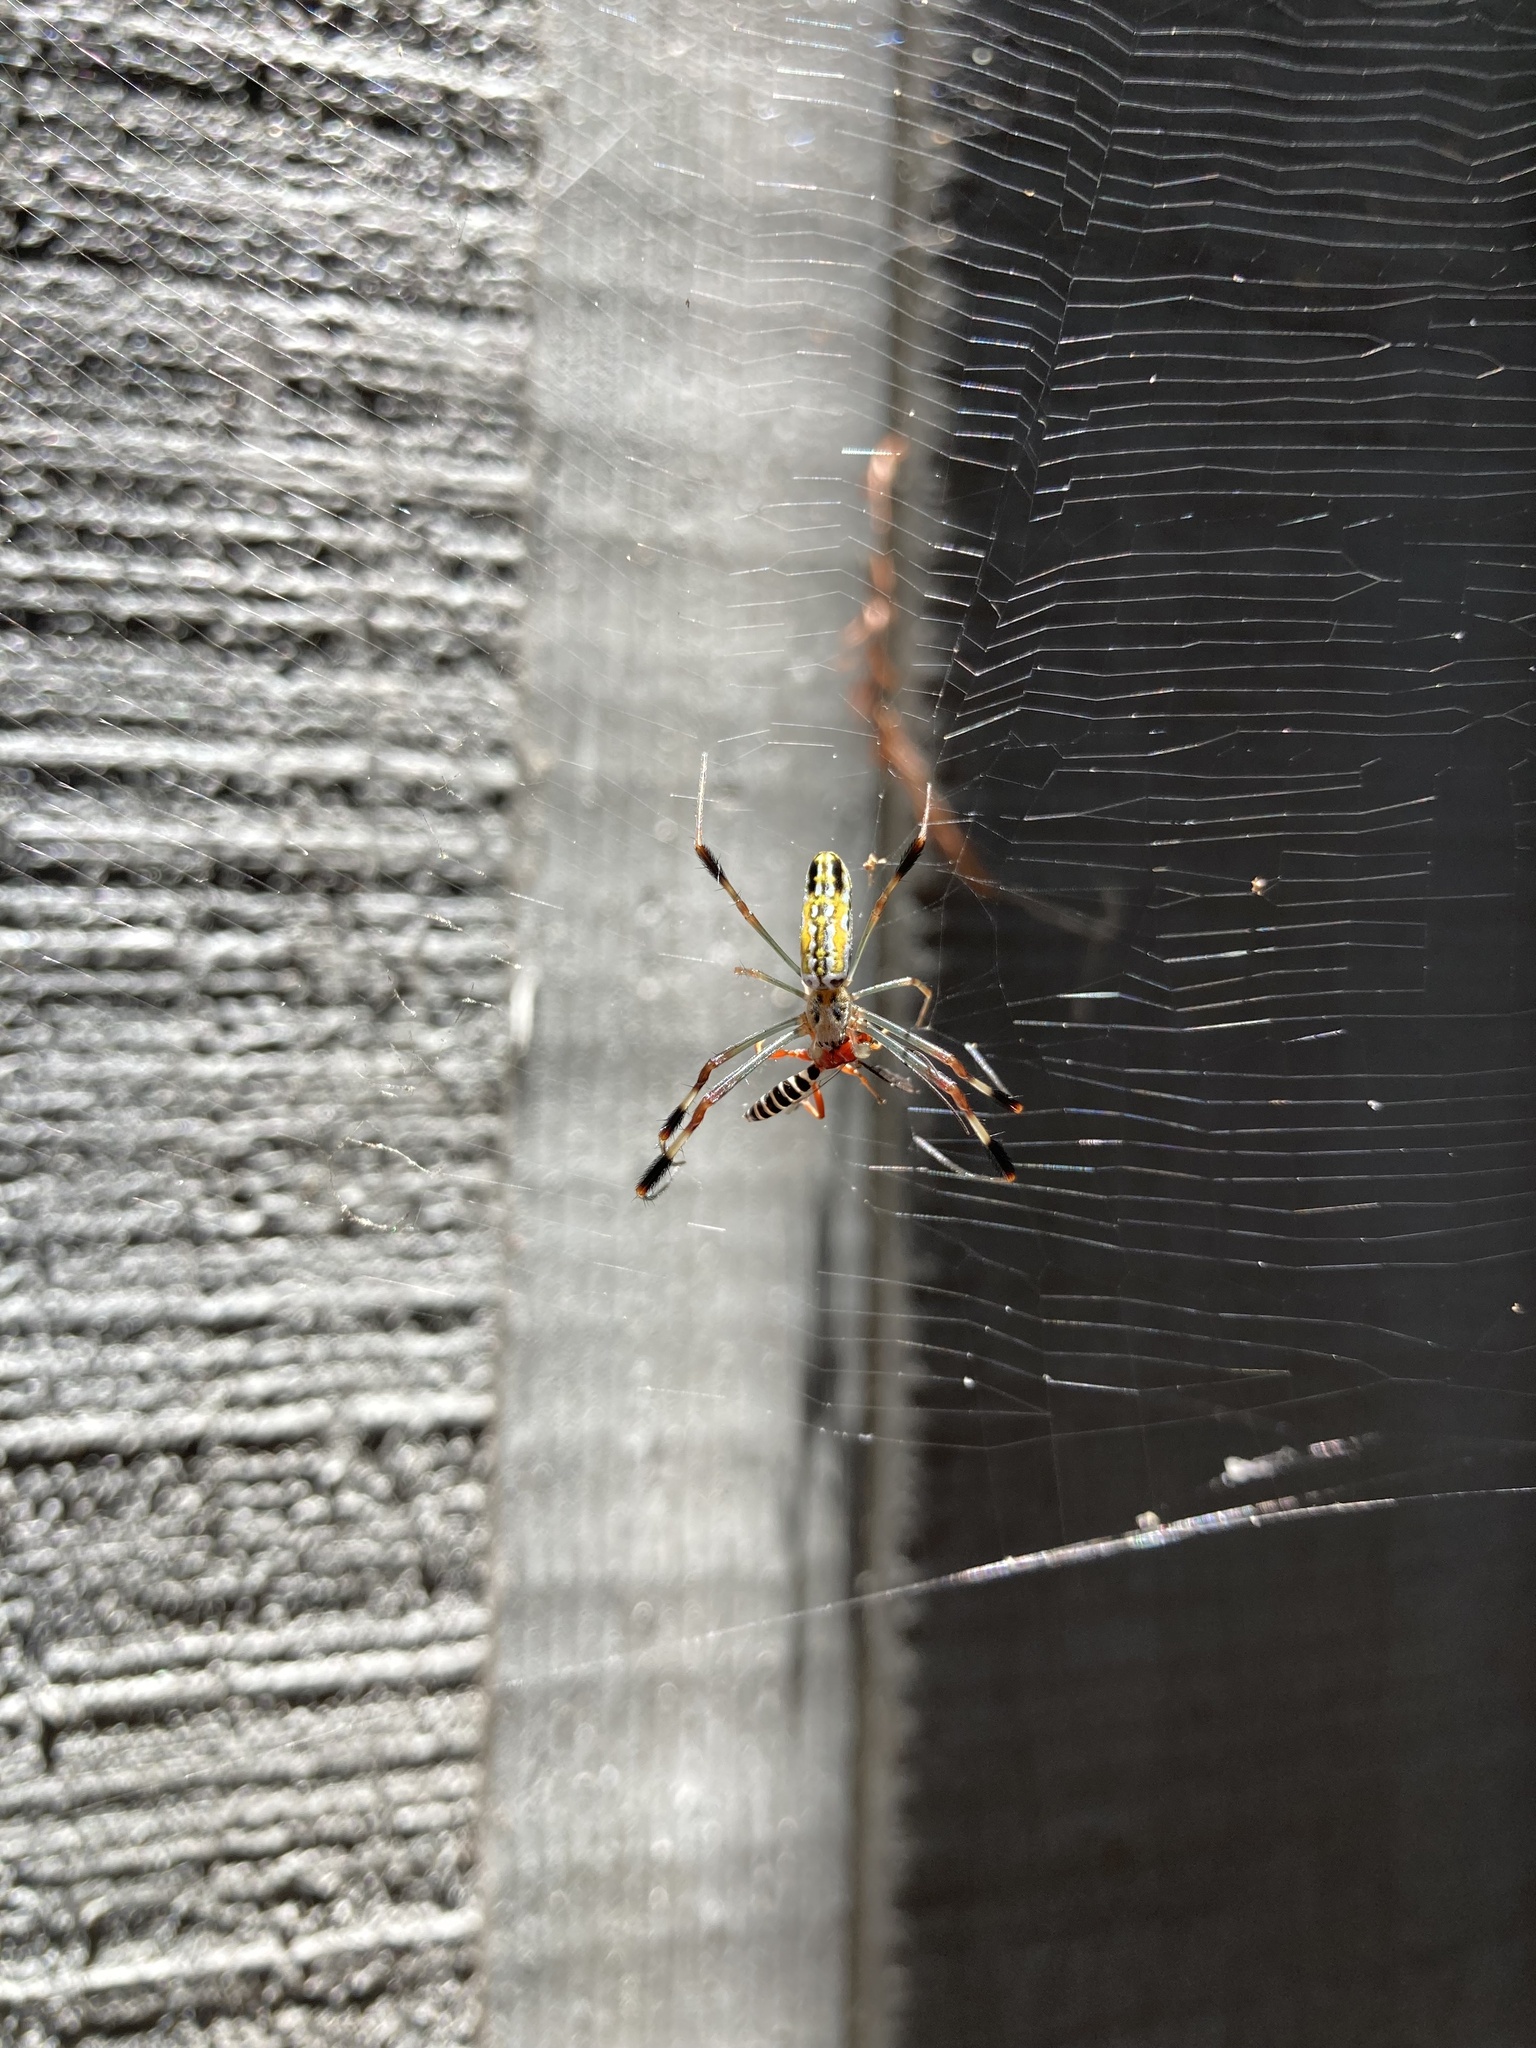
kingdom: Animalia
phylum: Arthropoda
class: Arachnida
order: Araneae
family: Araneidae
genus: Trichonephila
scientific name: Trichonephila clavipes
